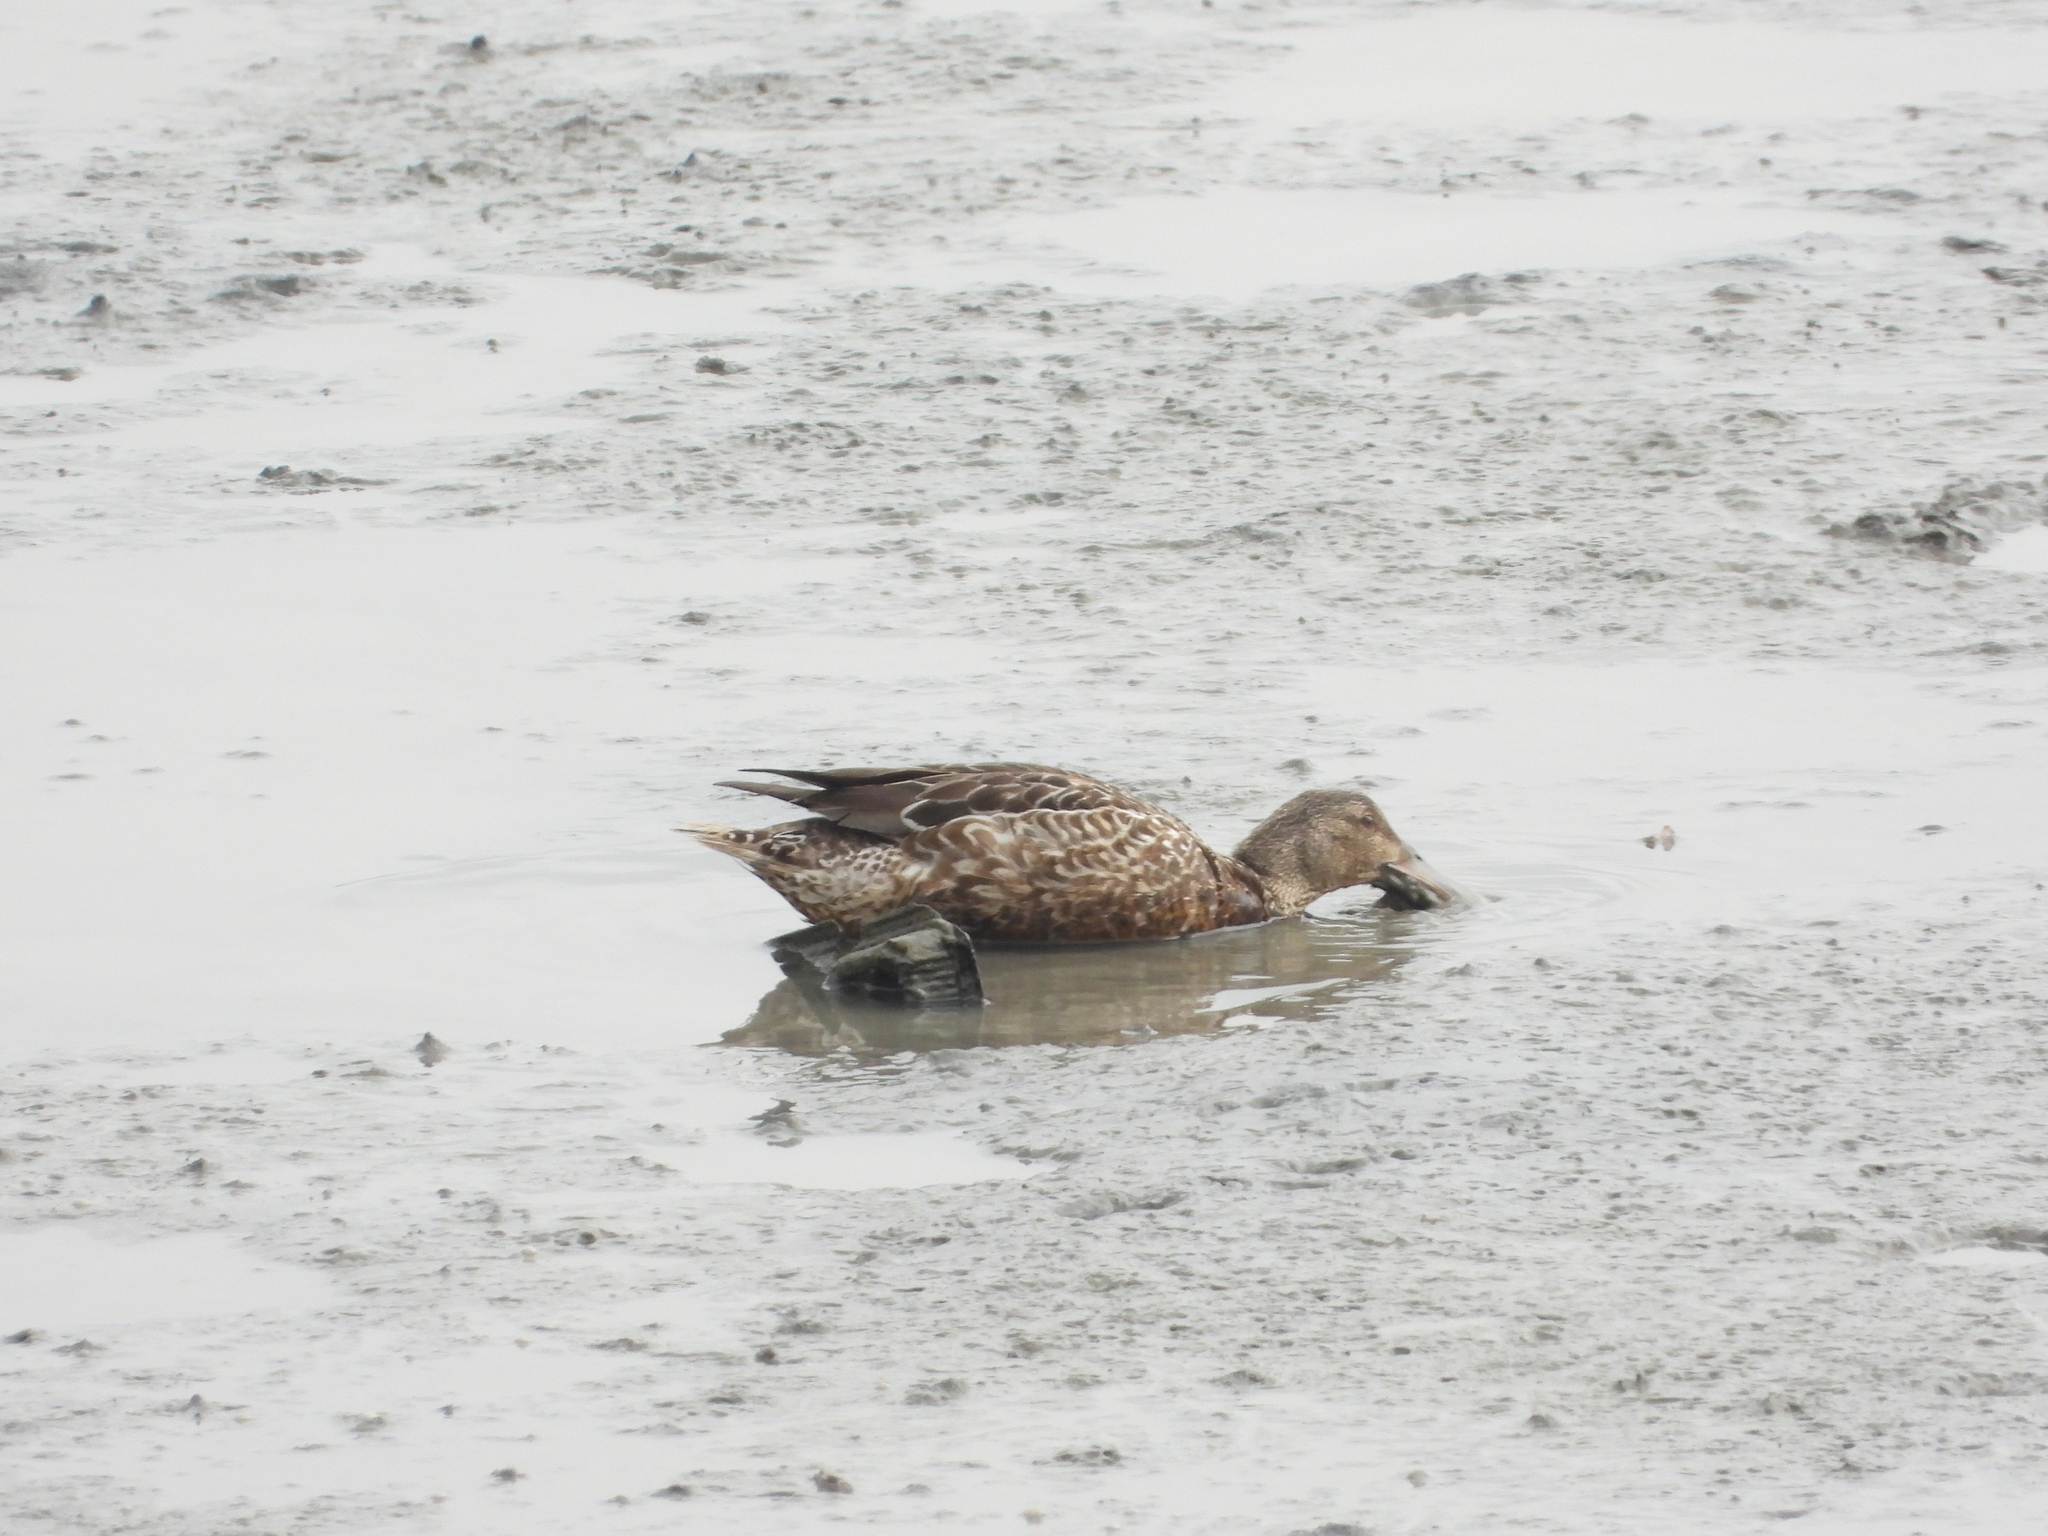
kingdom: Animalia
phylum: Chordata
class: Aves
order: Anseriformes
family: Anatidae
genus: Spatula
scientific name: Spatula clypeata
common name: Northern shoveler
